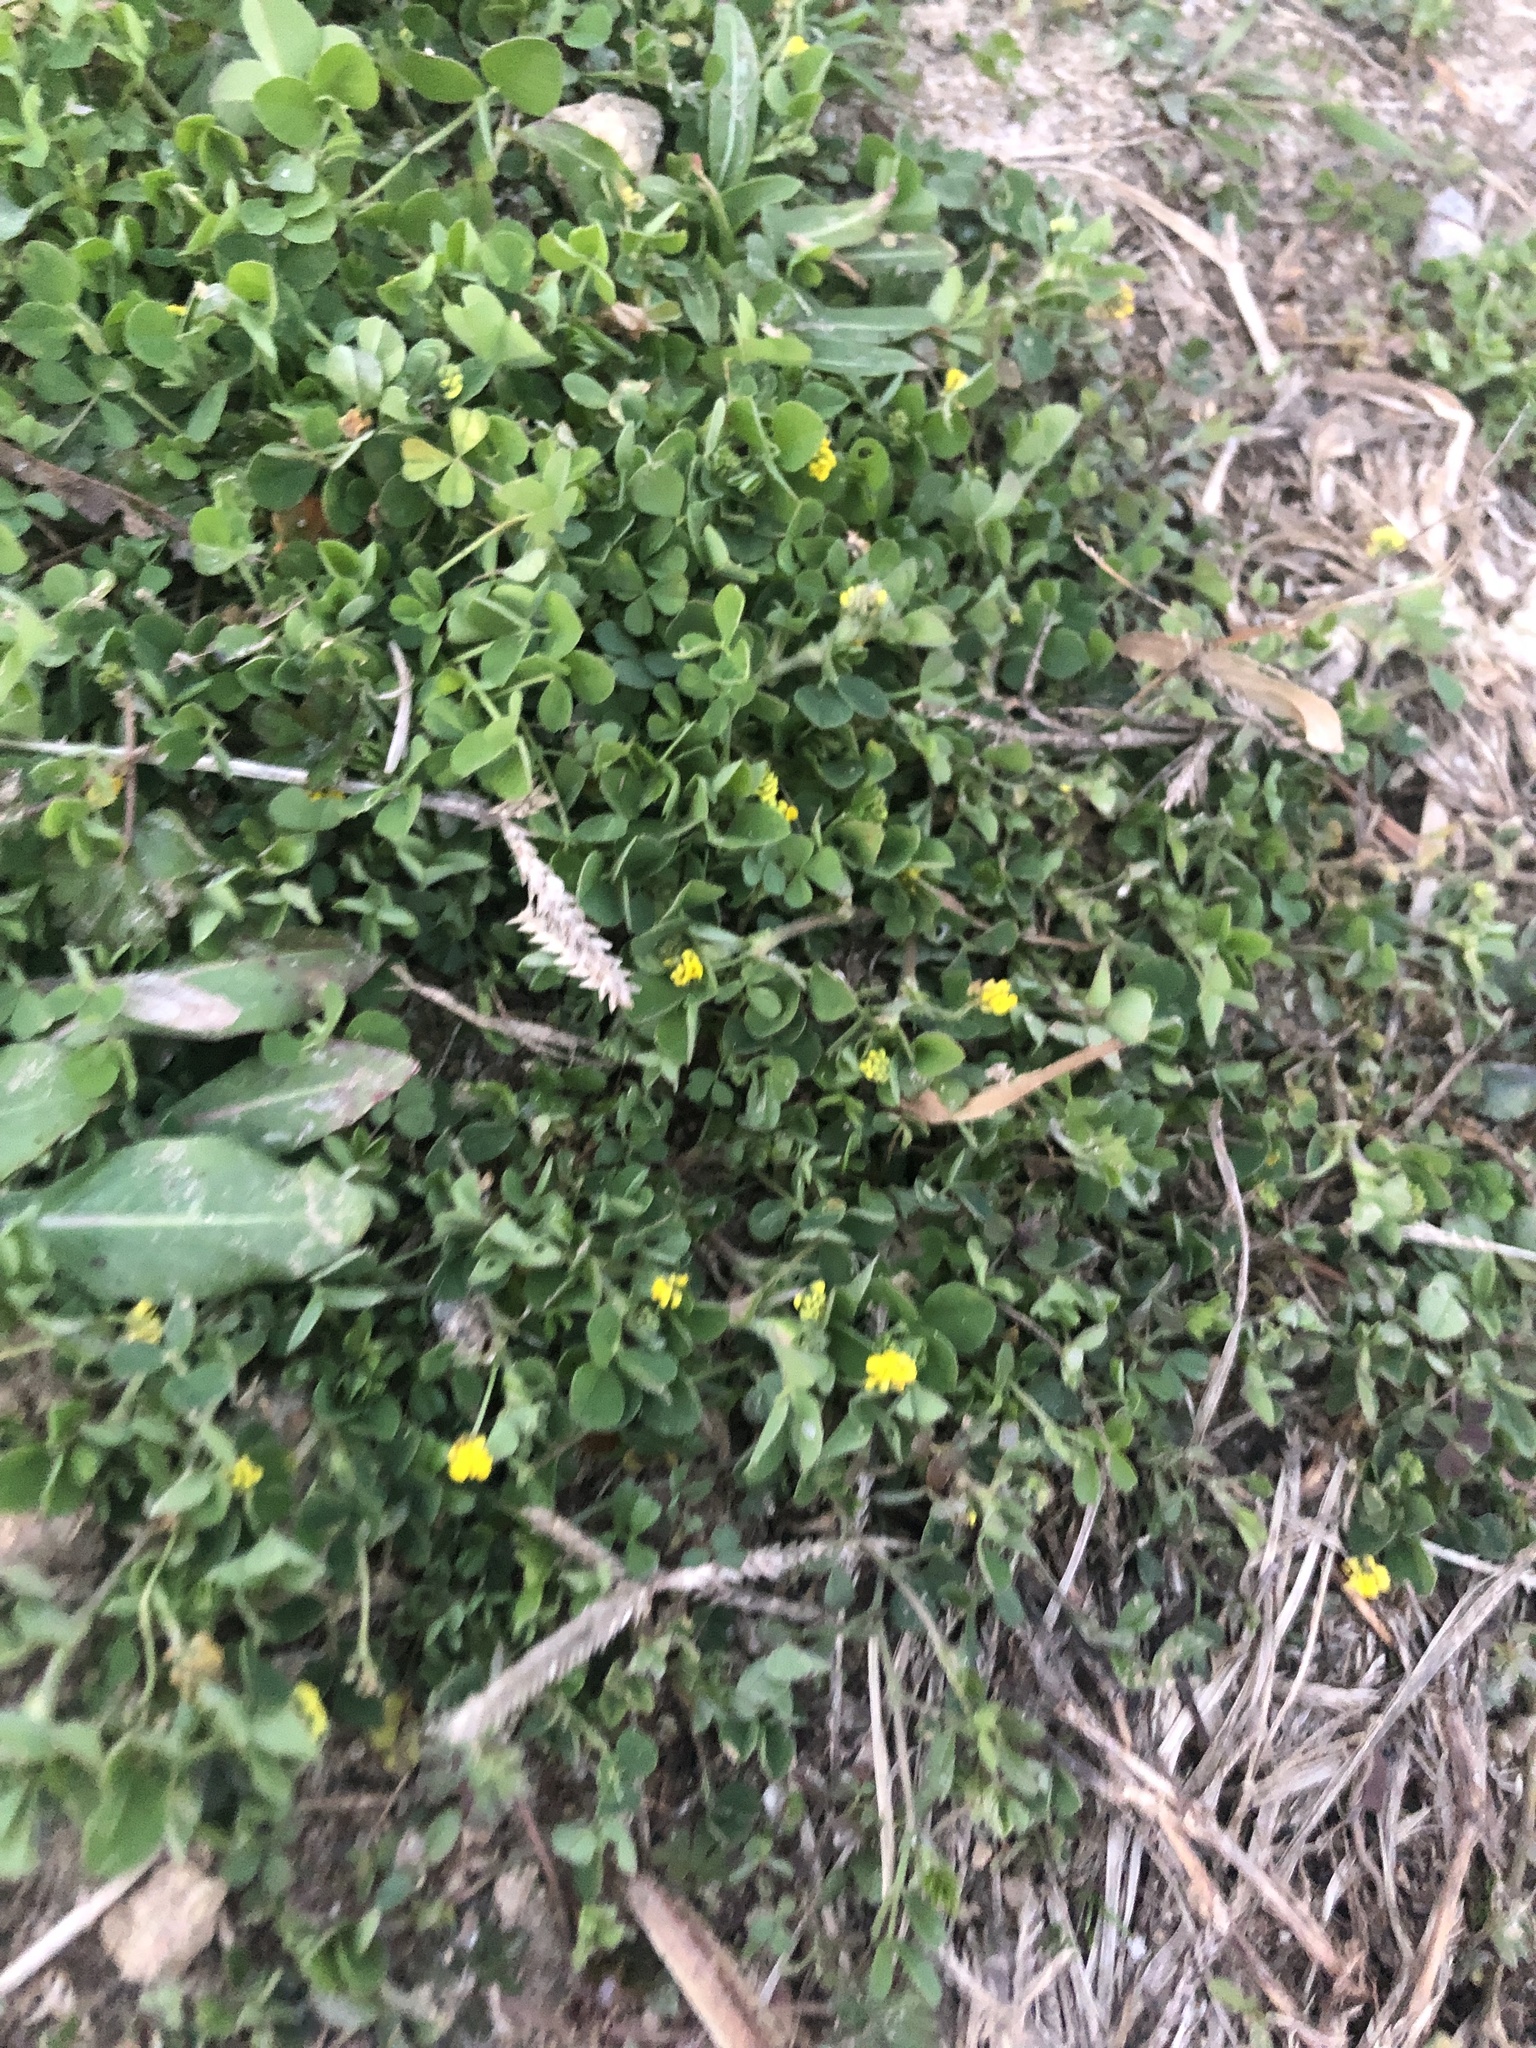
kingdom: Plantae
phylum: Tracheophyta
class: Magnoliopsida
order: Fabales
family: Fabaceae
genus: Medicago
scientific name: Medicago lupulina
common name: Black medick
